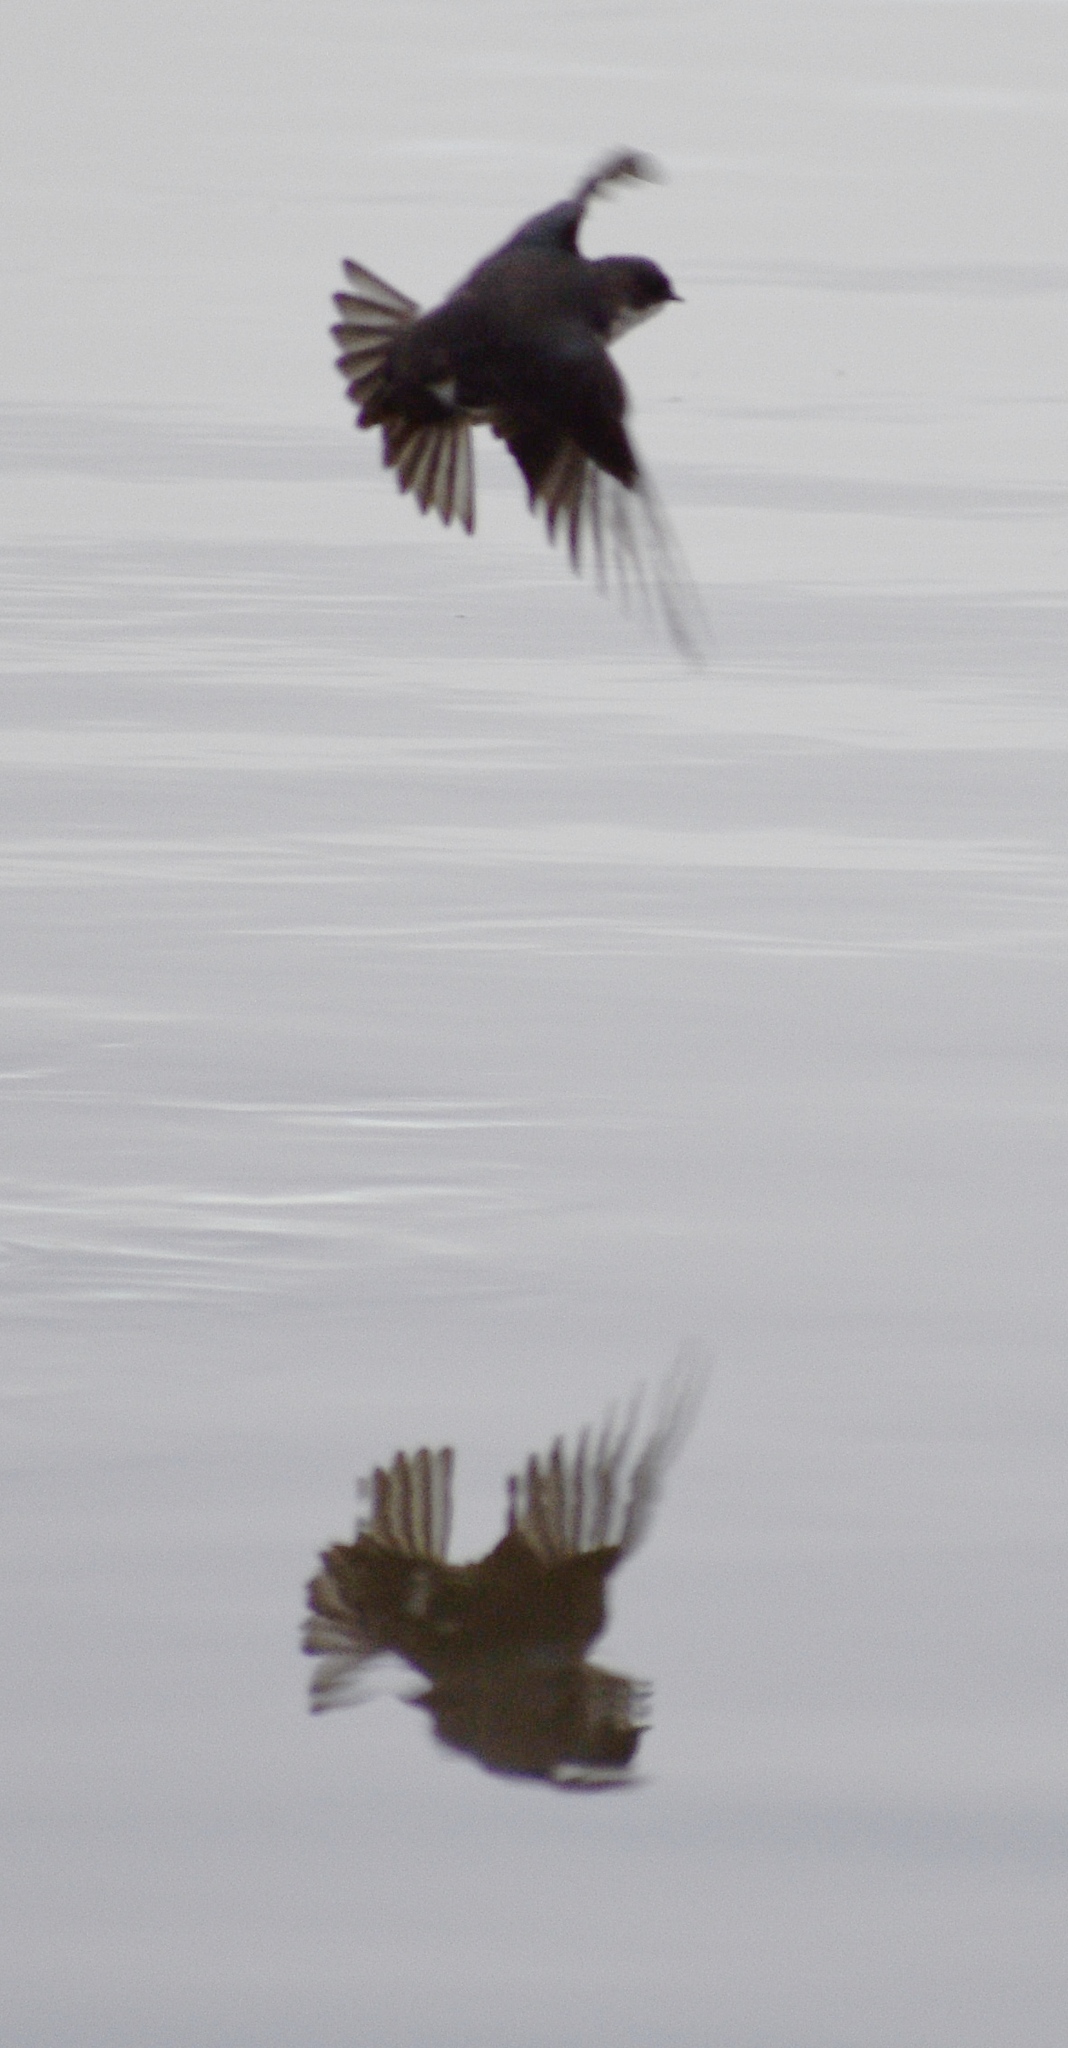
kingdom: Animalia
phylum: Chordata
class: Aves
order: Passeriformes
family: Hirundinidae
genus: Tachycineta
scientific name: Tachycineta bicolor
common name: Tree swallow
